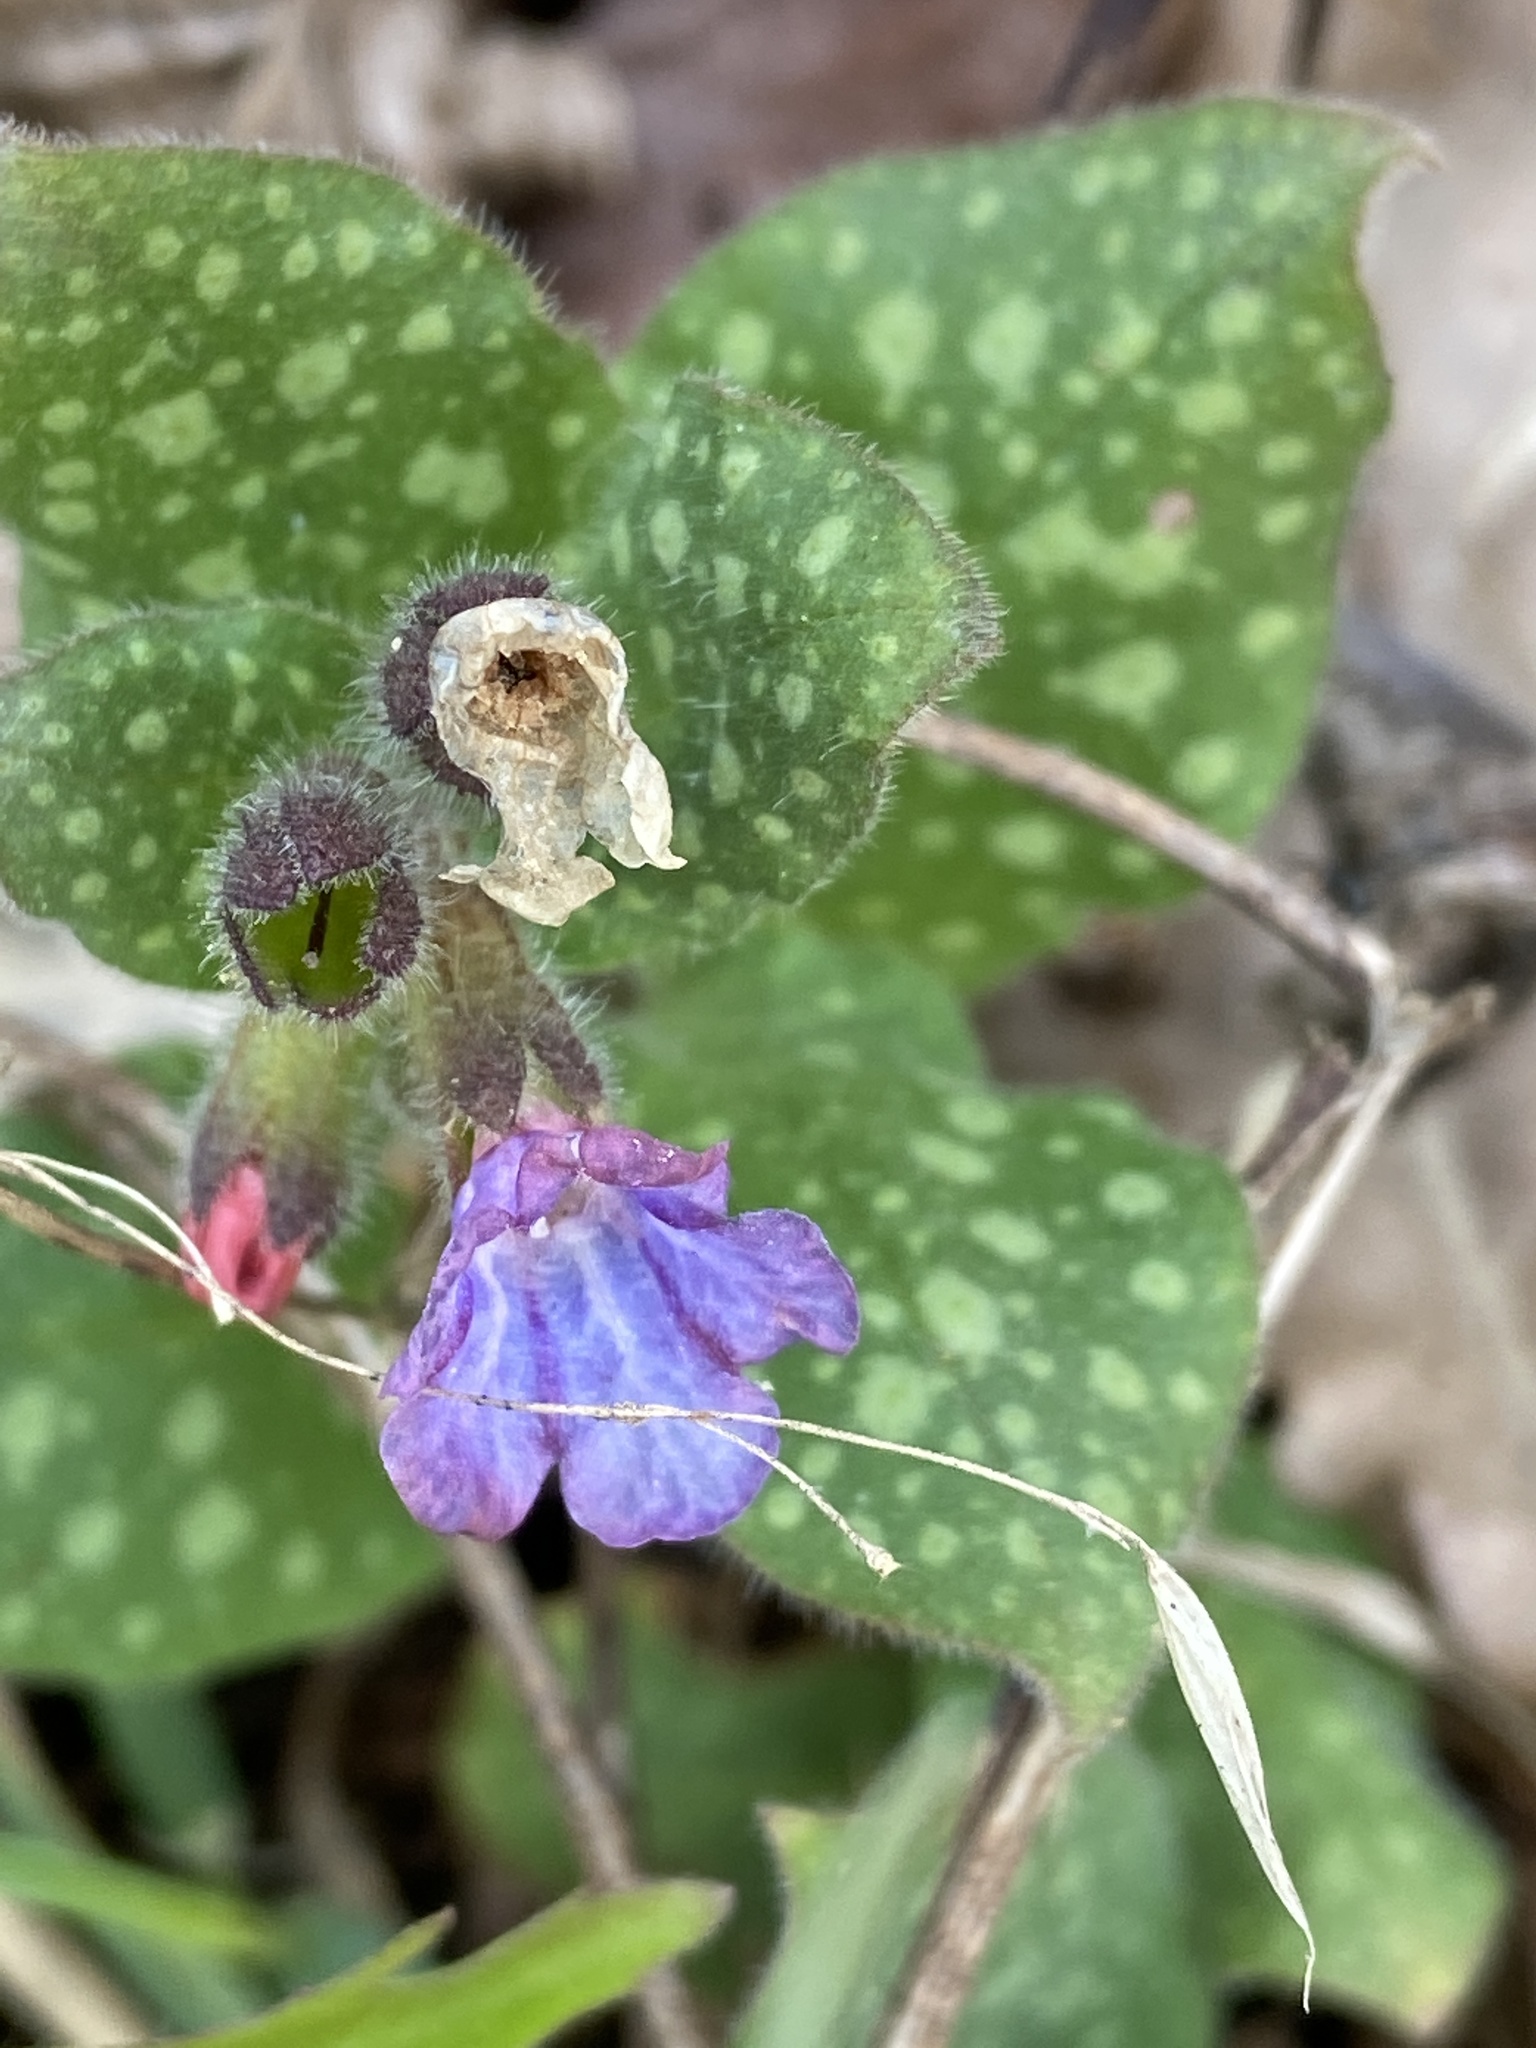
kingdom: Plantae
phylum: Tracheophyta
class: Magnoliopsida
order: Boraginales
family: Boraginaceae
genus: Pulmonaria
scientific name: Pulmonaria officinalis
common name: Lungwort
